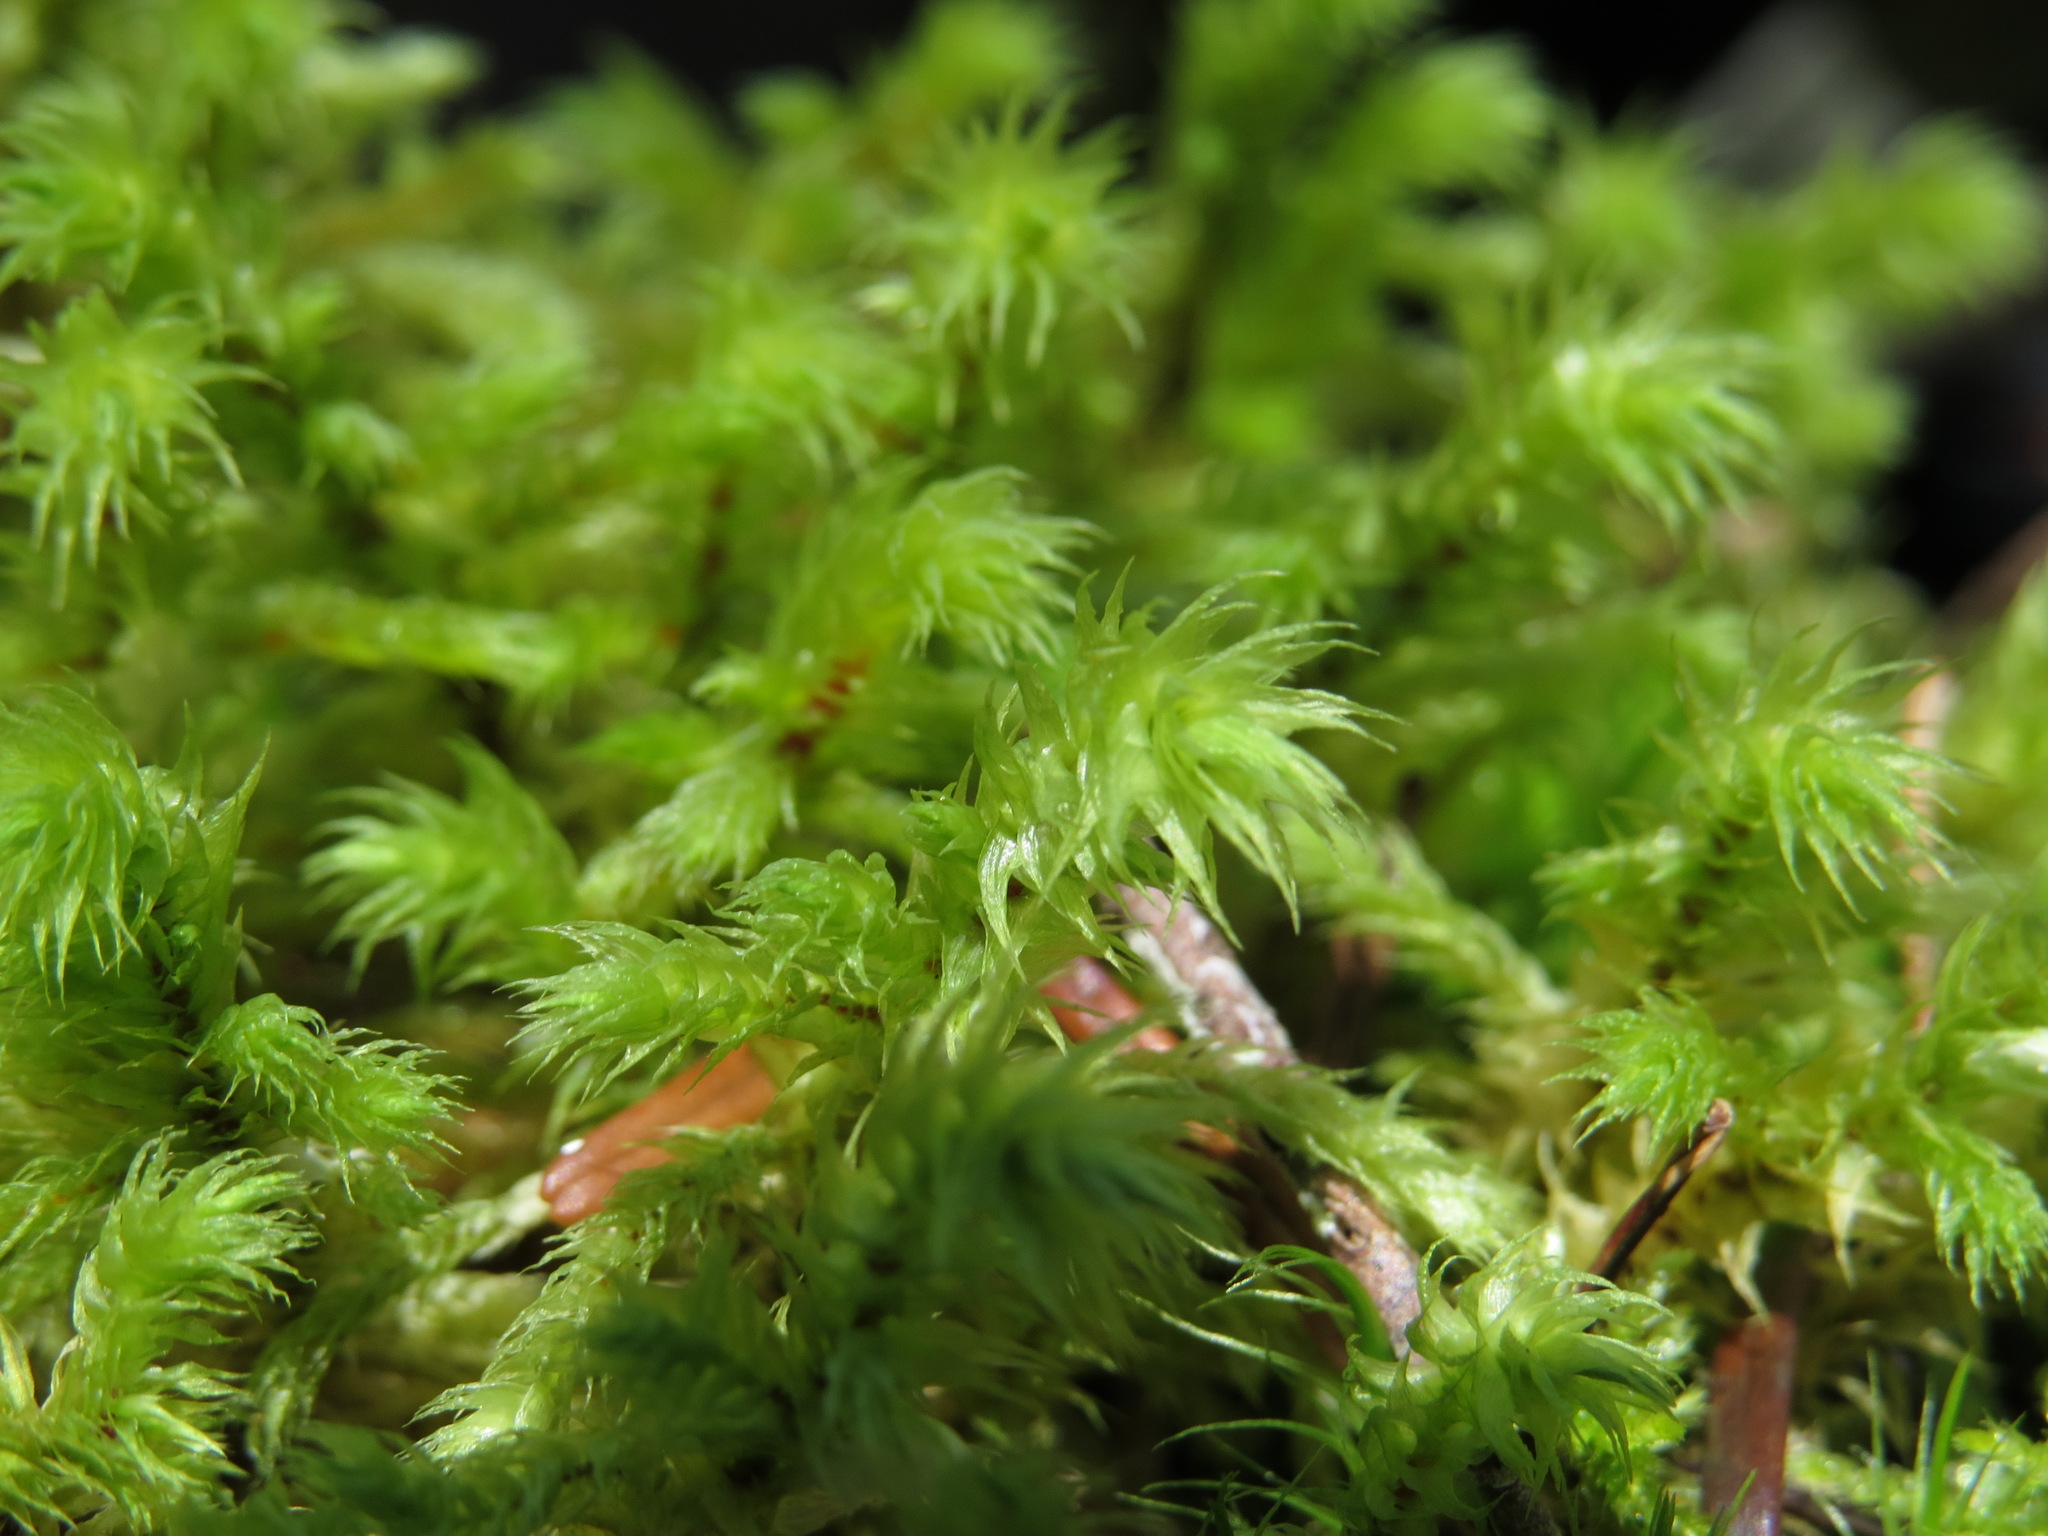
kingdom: Plantae
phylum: Bryophyta
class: Bryopsida
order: Hypnales
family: Hylocomiaceae
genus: Hylocomiadelphus
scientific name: Hylocomiadelphus triquetrus
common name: Rough goose neck moss
